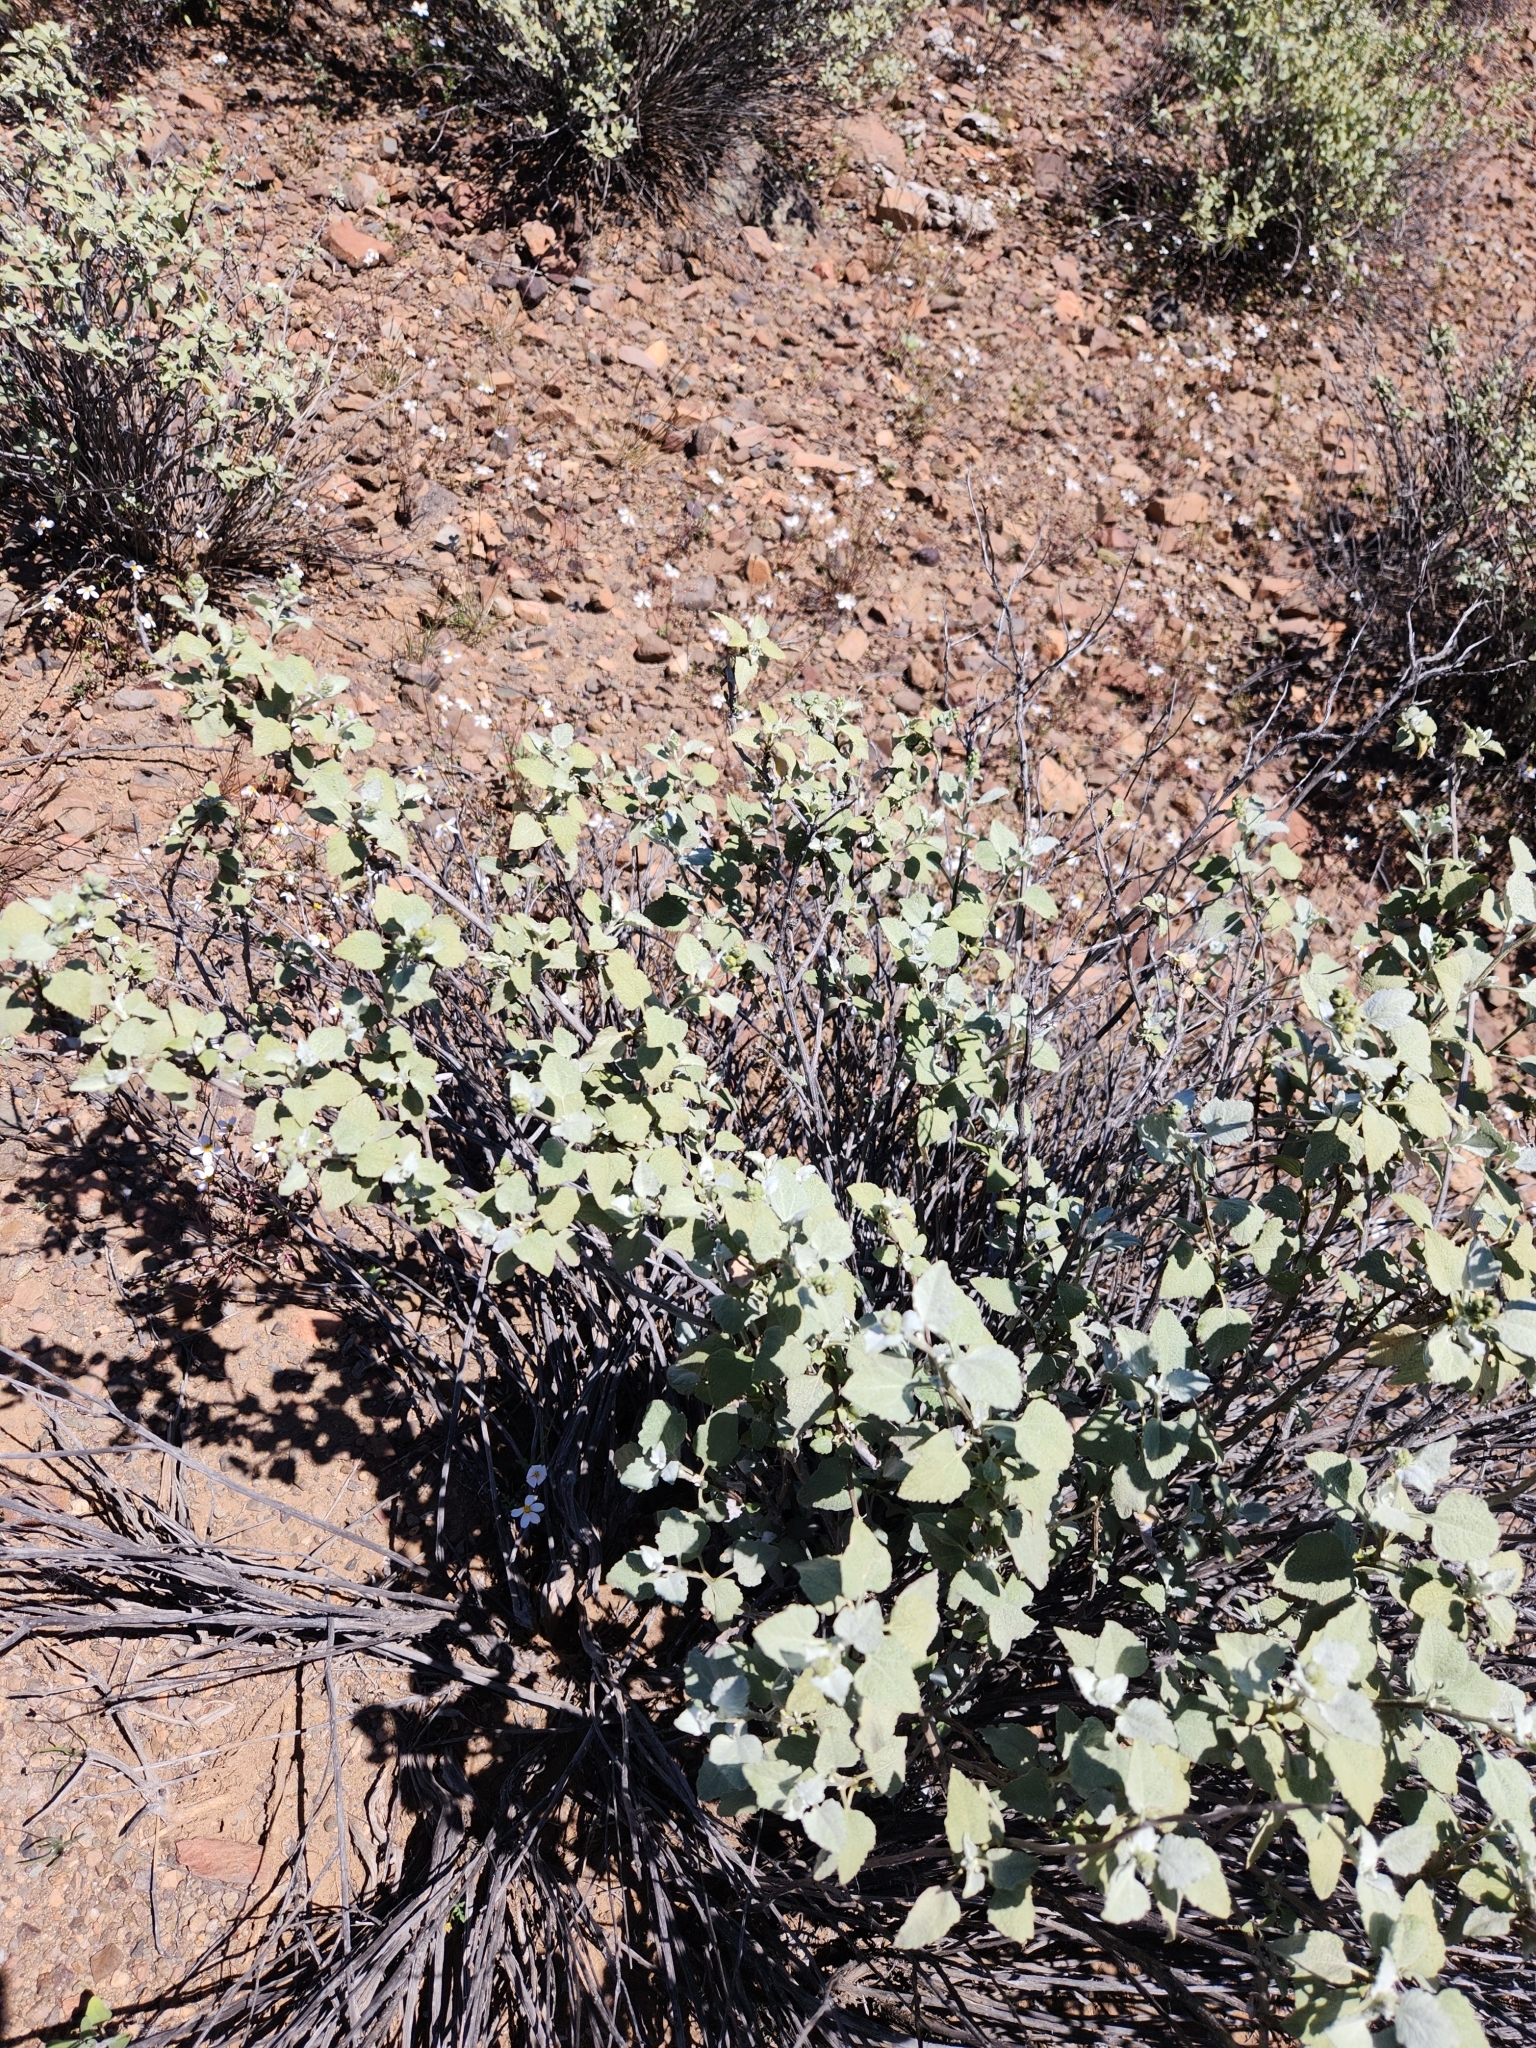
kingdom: Plantae
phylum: Tracheophyta
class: Magnoliopsida
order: Asterales
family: Asteraceae
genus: Ambrosia
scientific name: Ambrosia chenopodiifolia
